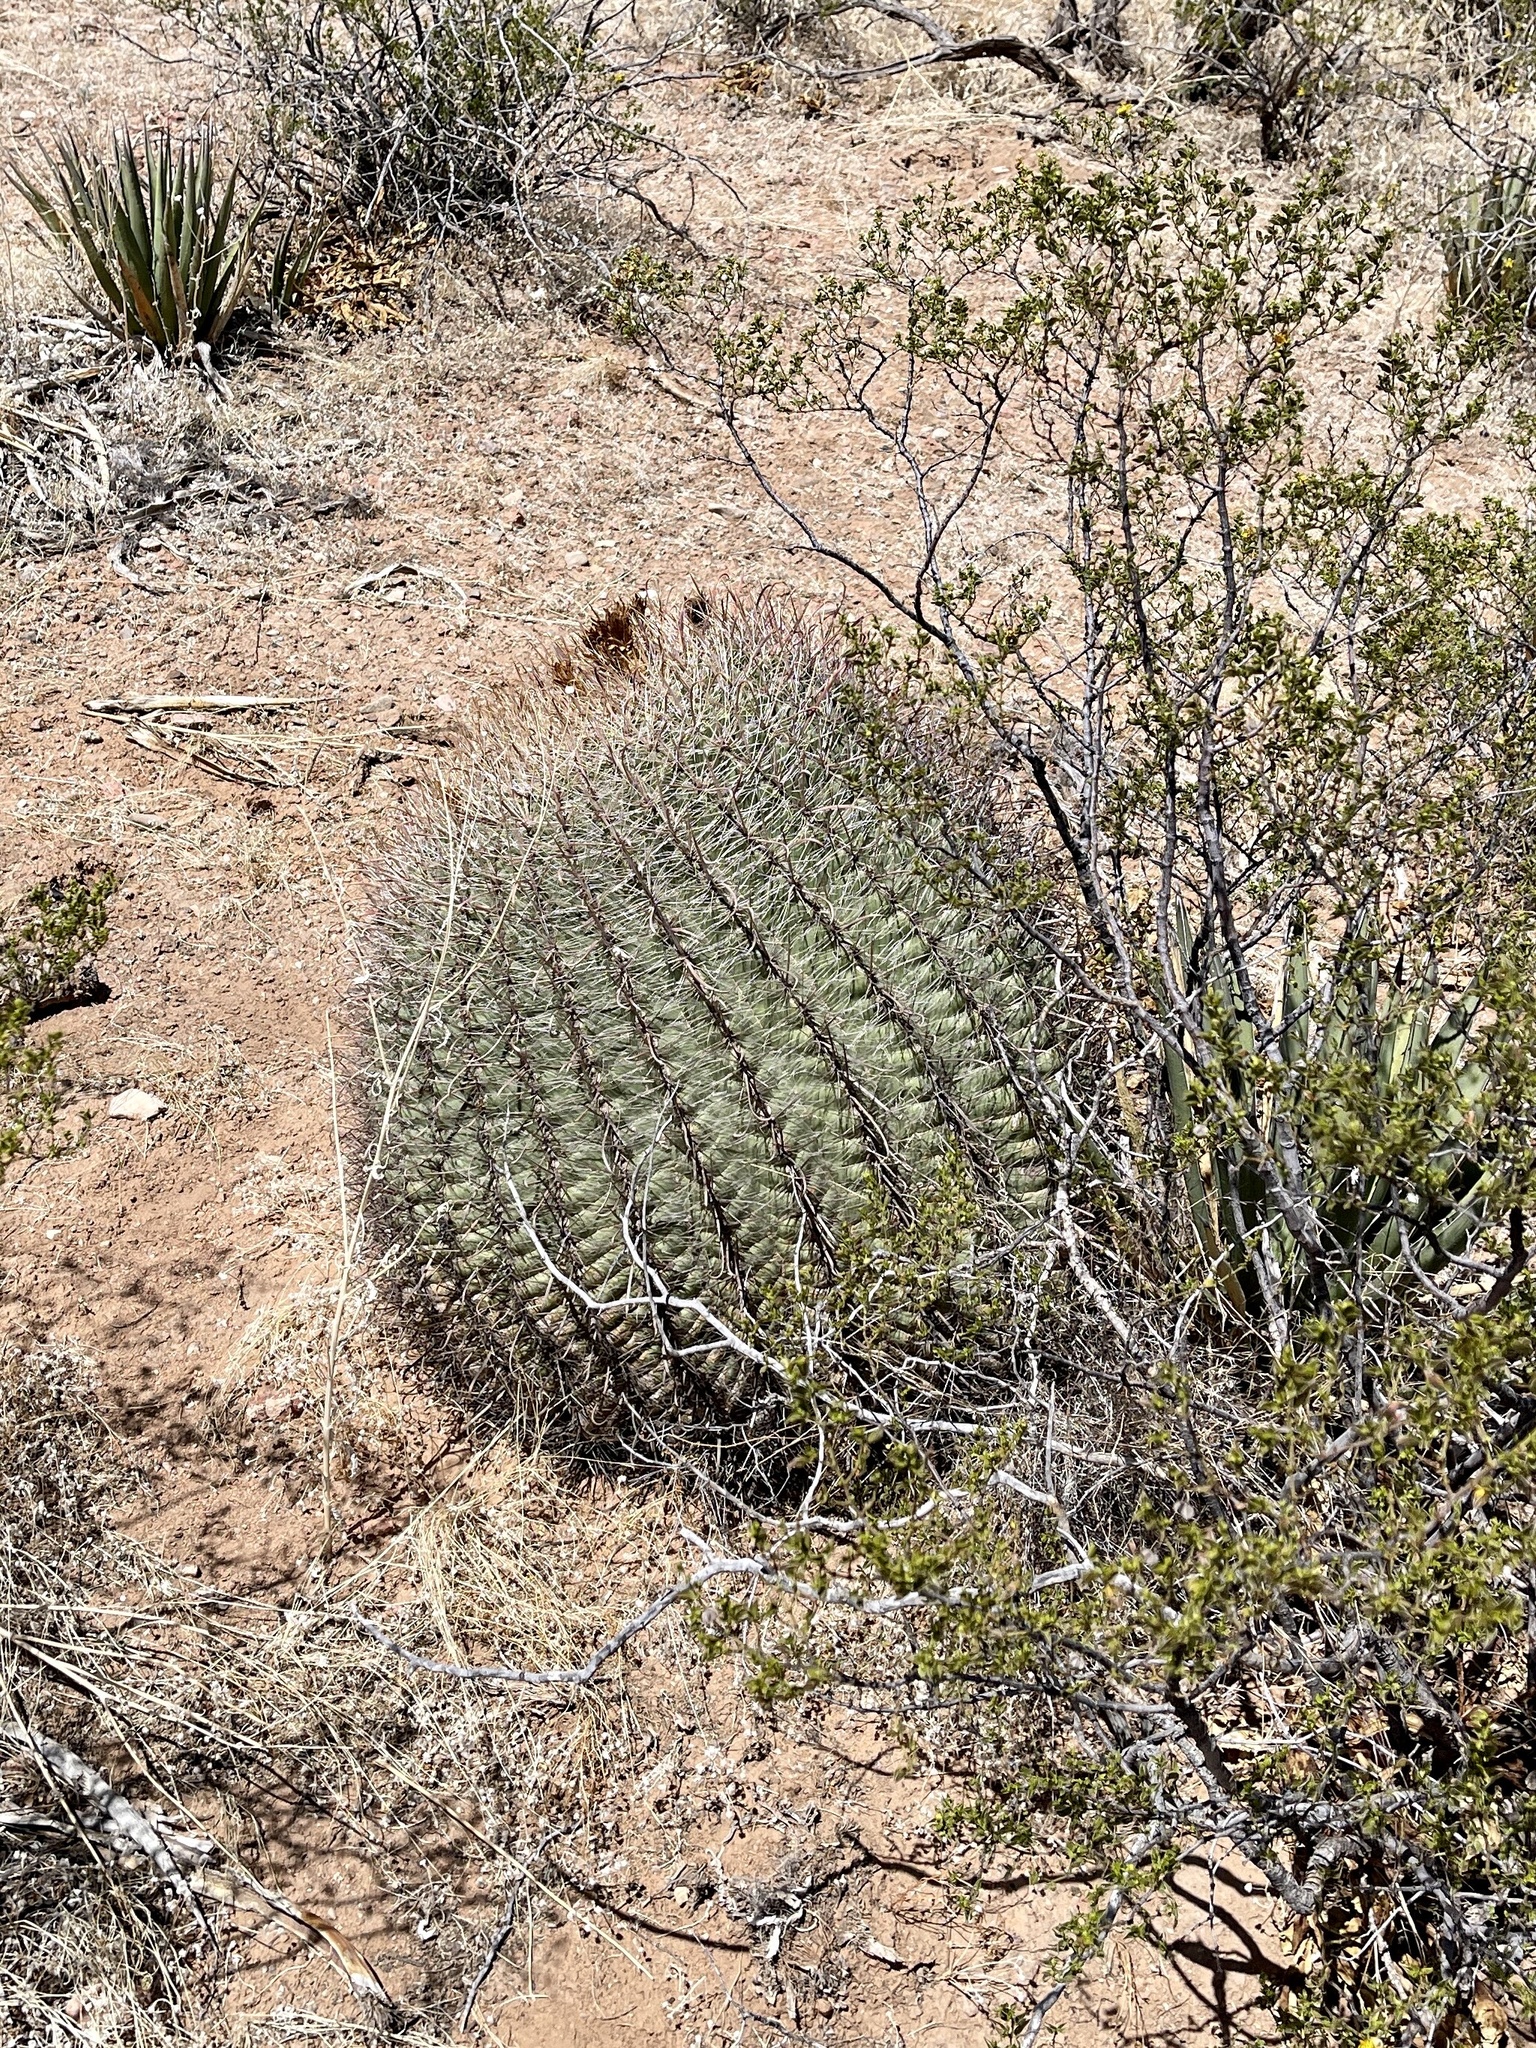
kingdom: Plantae
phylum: Tracheophyta
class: Magnoliopsida
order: Caryophyllales
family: Cactaceae
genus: Ferocactus
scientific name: Ferocactus wislizeni
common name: Candy barrel cactus
